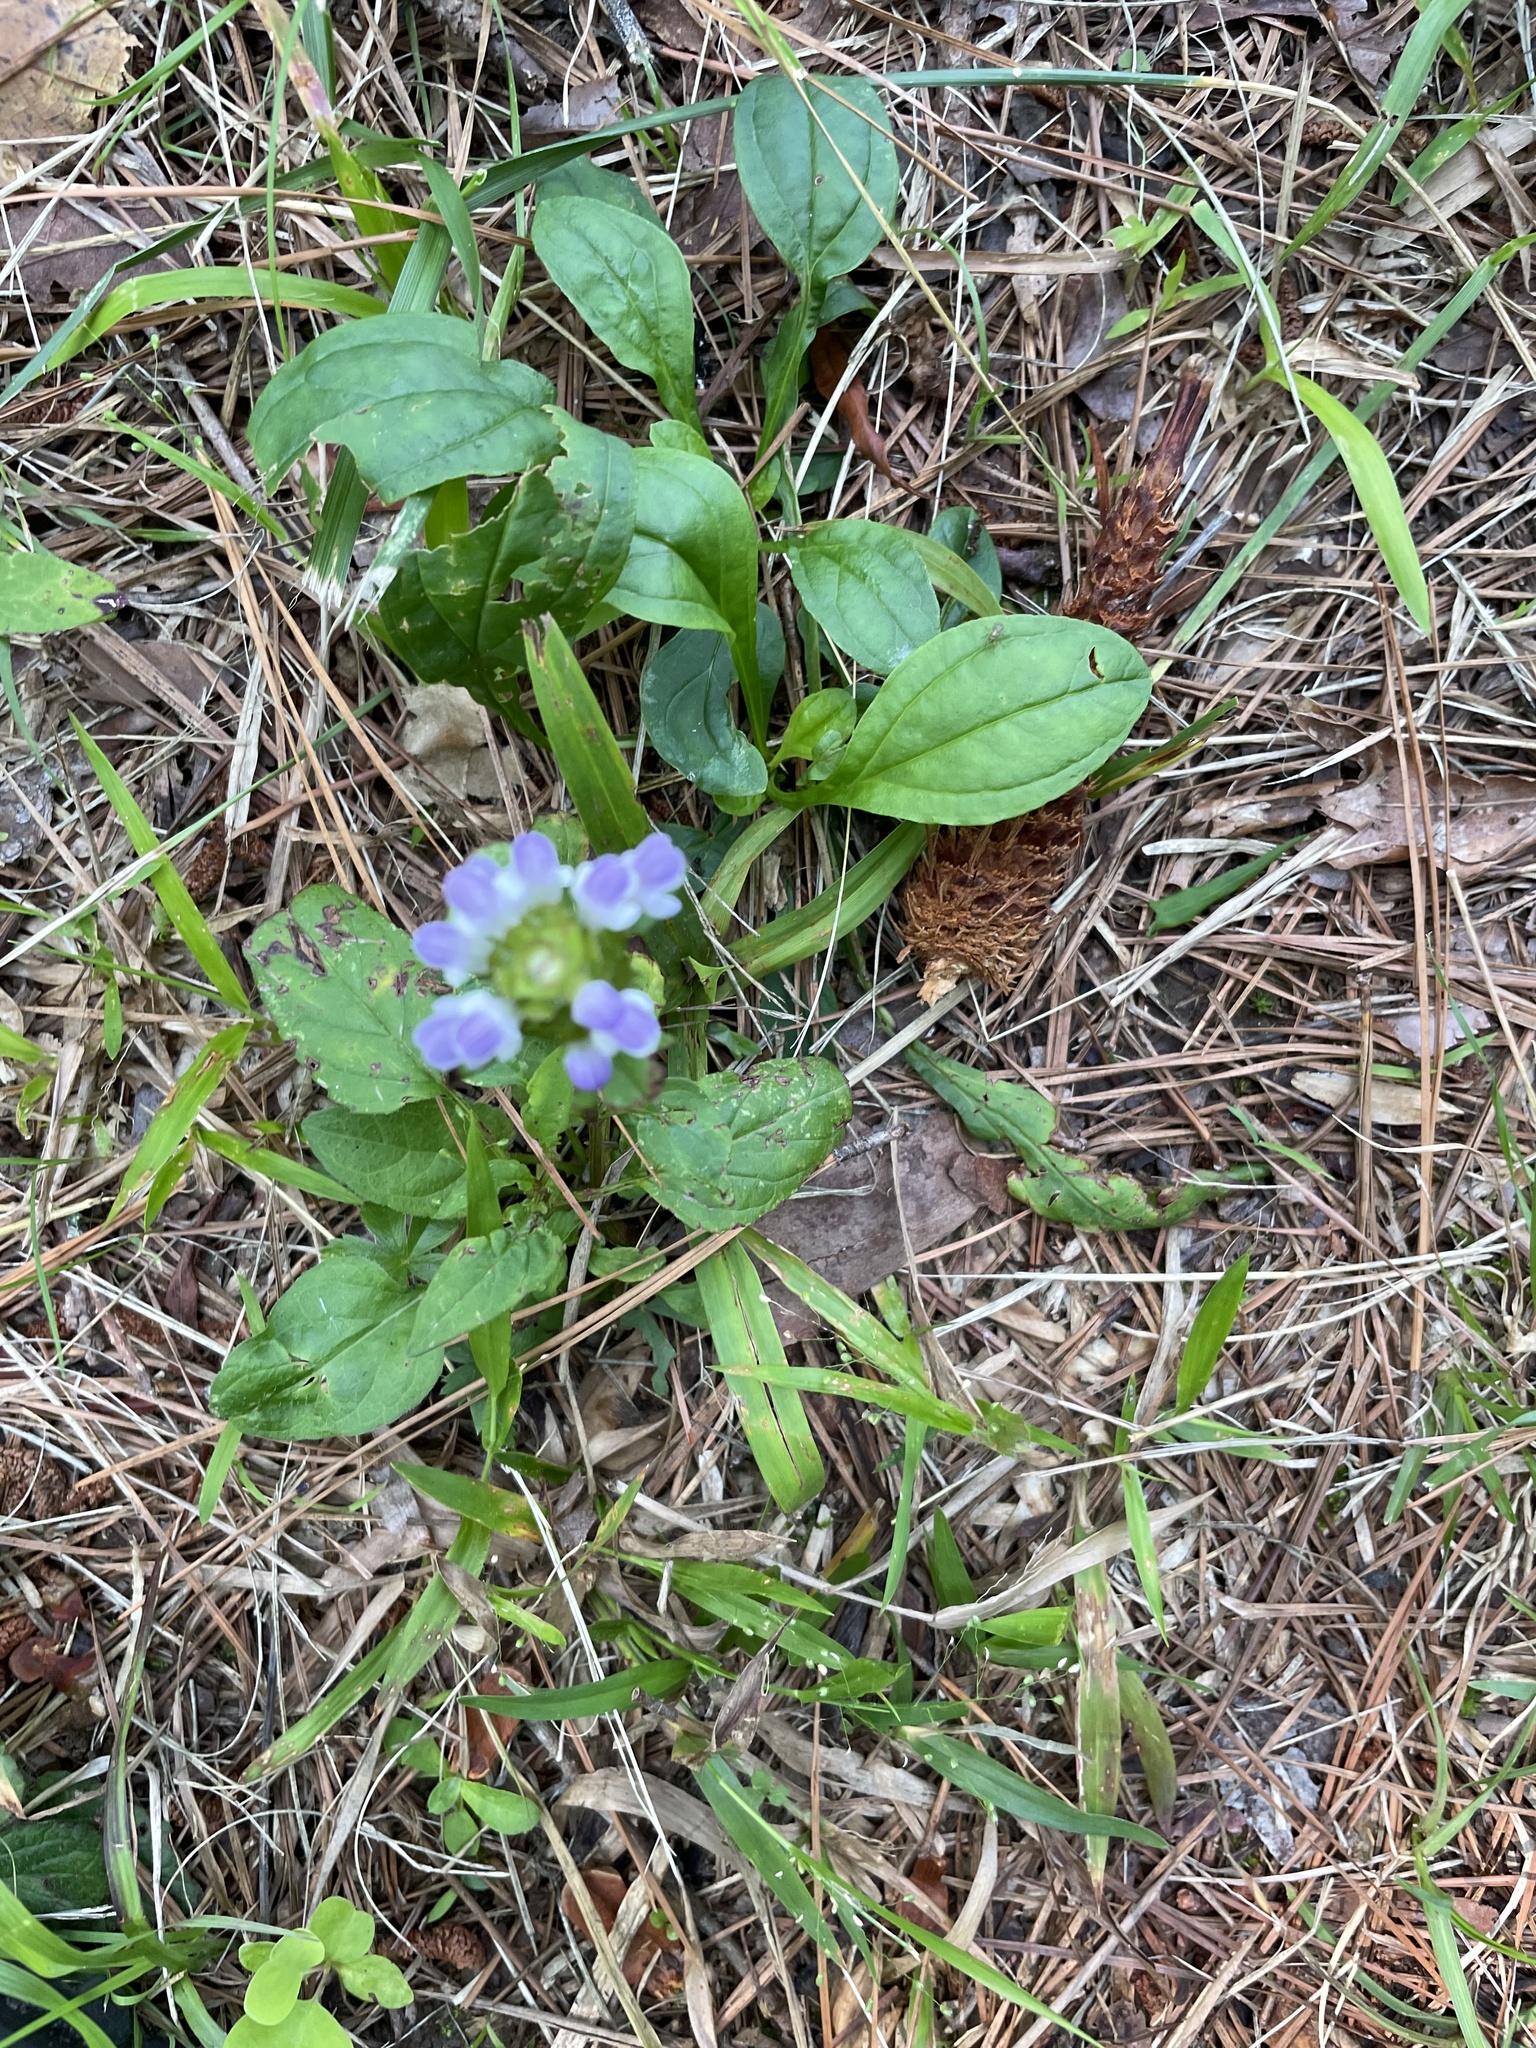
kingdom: Plantae
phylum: Tracheophyta
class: Magnoliopsida
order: Lamiales
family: Lamiaceae
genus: Prunella
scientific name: Prunella vulgaris
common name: Heal-all
